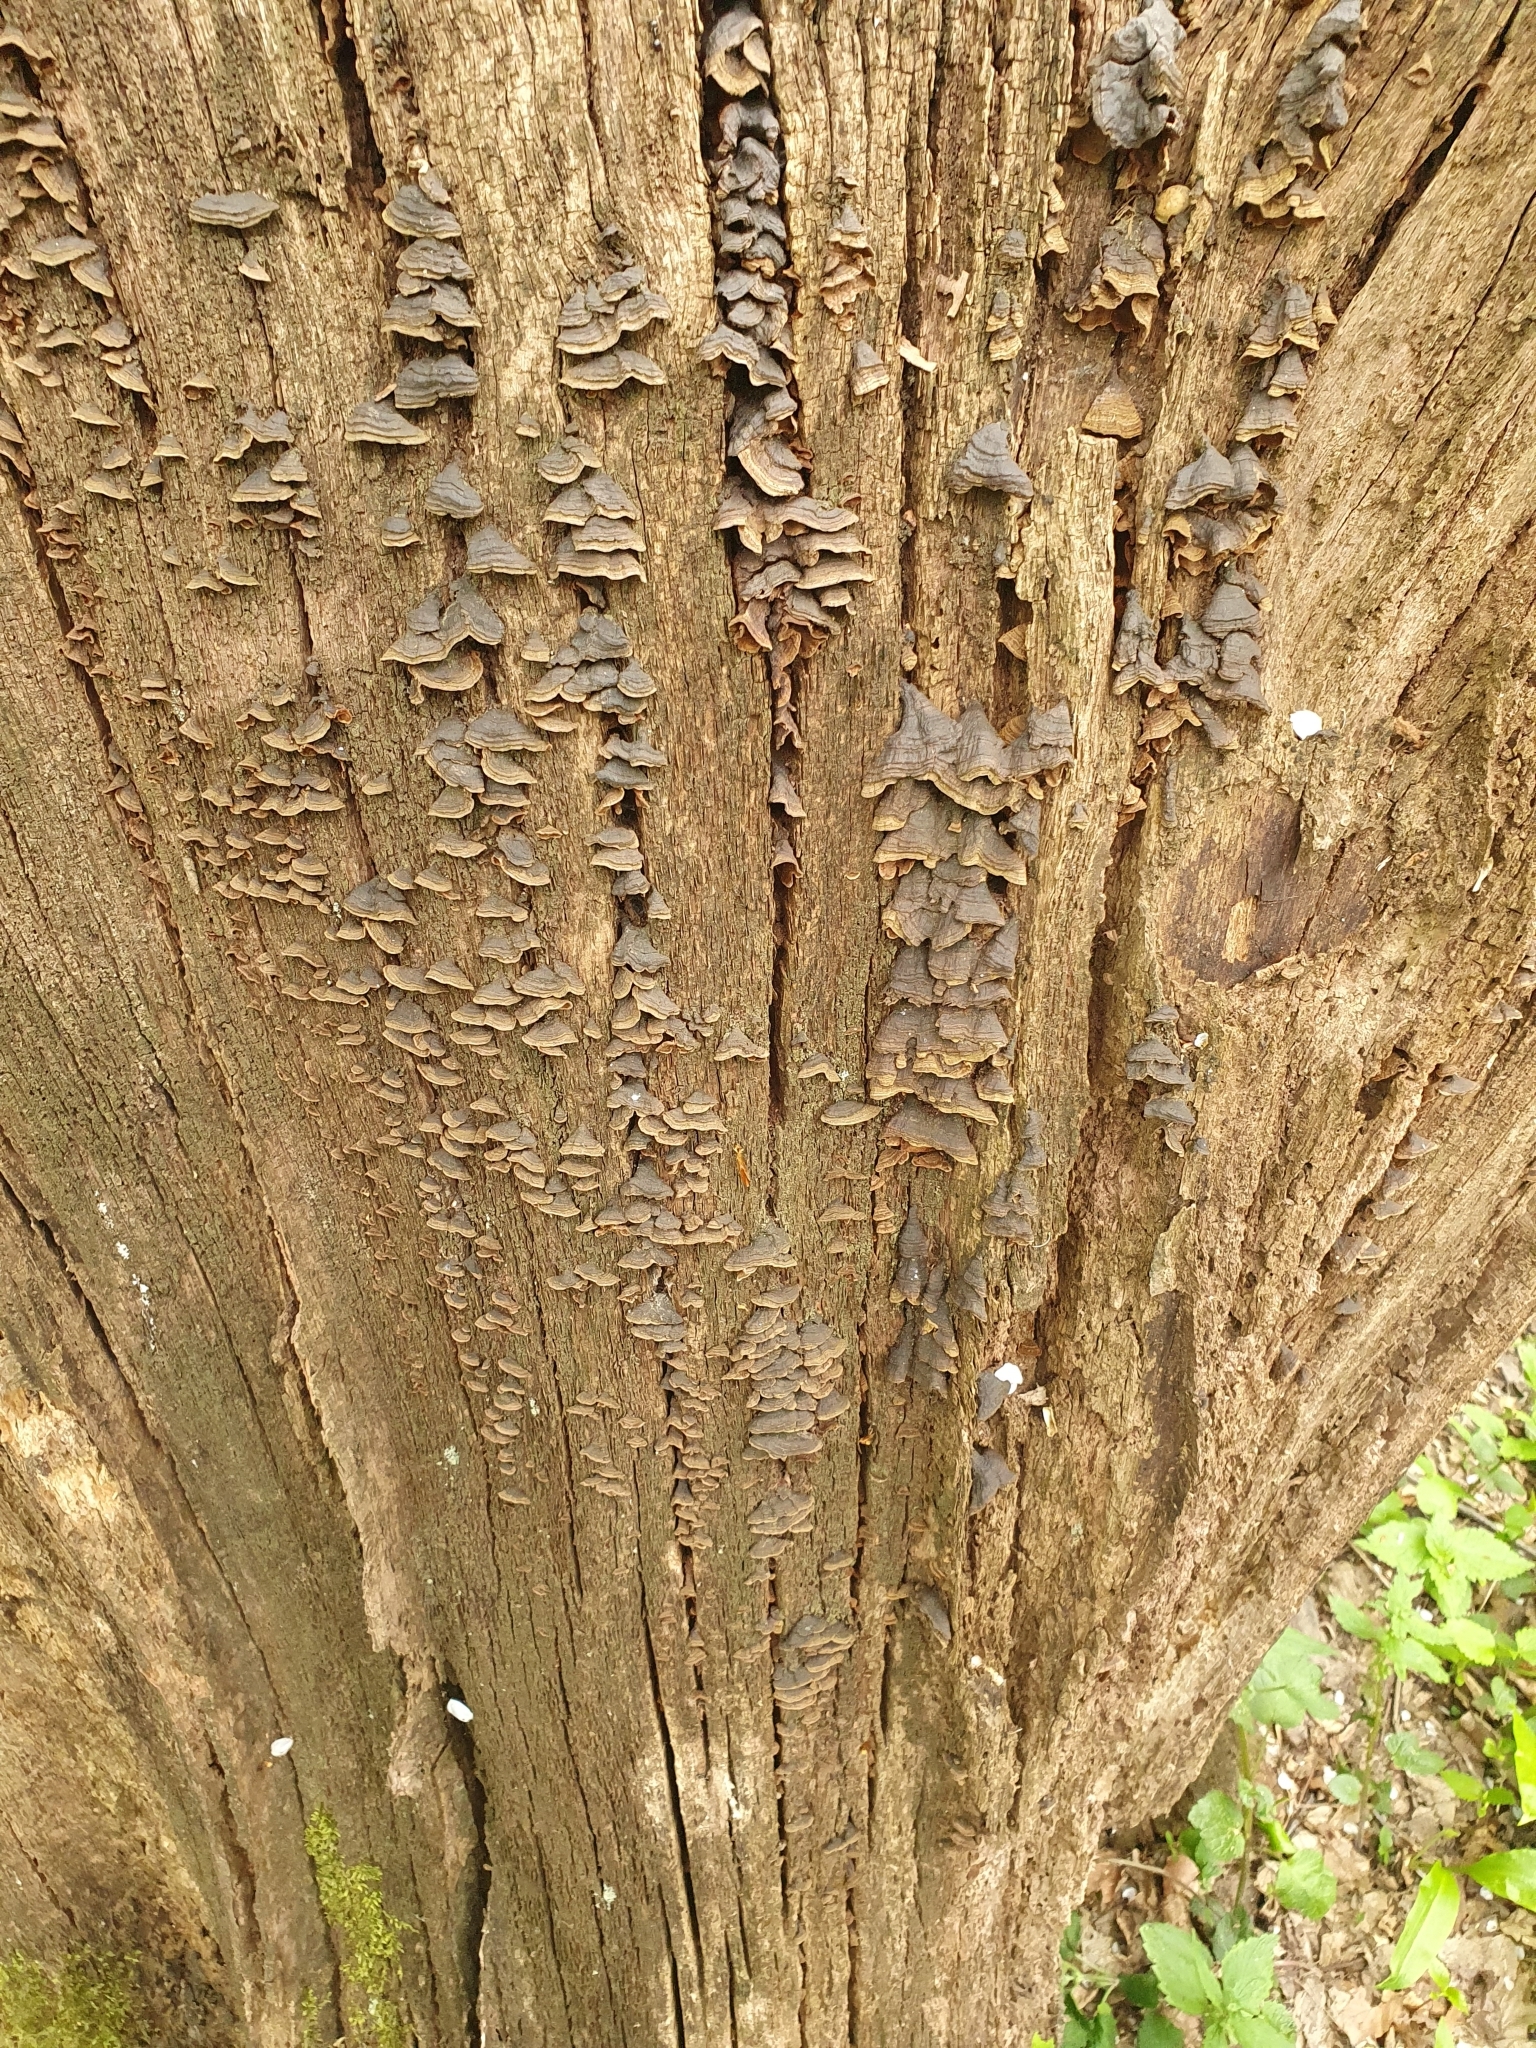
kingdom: Fungi
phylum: Basidiomycota
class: Agaricomycetes
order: Hymenochaetales
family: Hymenochaetaceae
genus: Hymenochaete
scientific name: Hymenochaete rubiginosa
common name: Oak curtain crust
